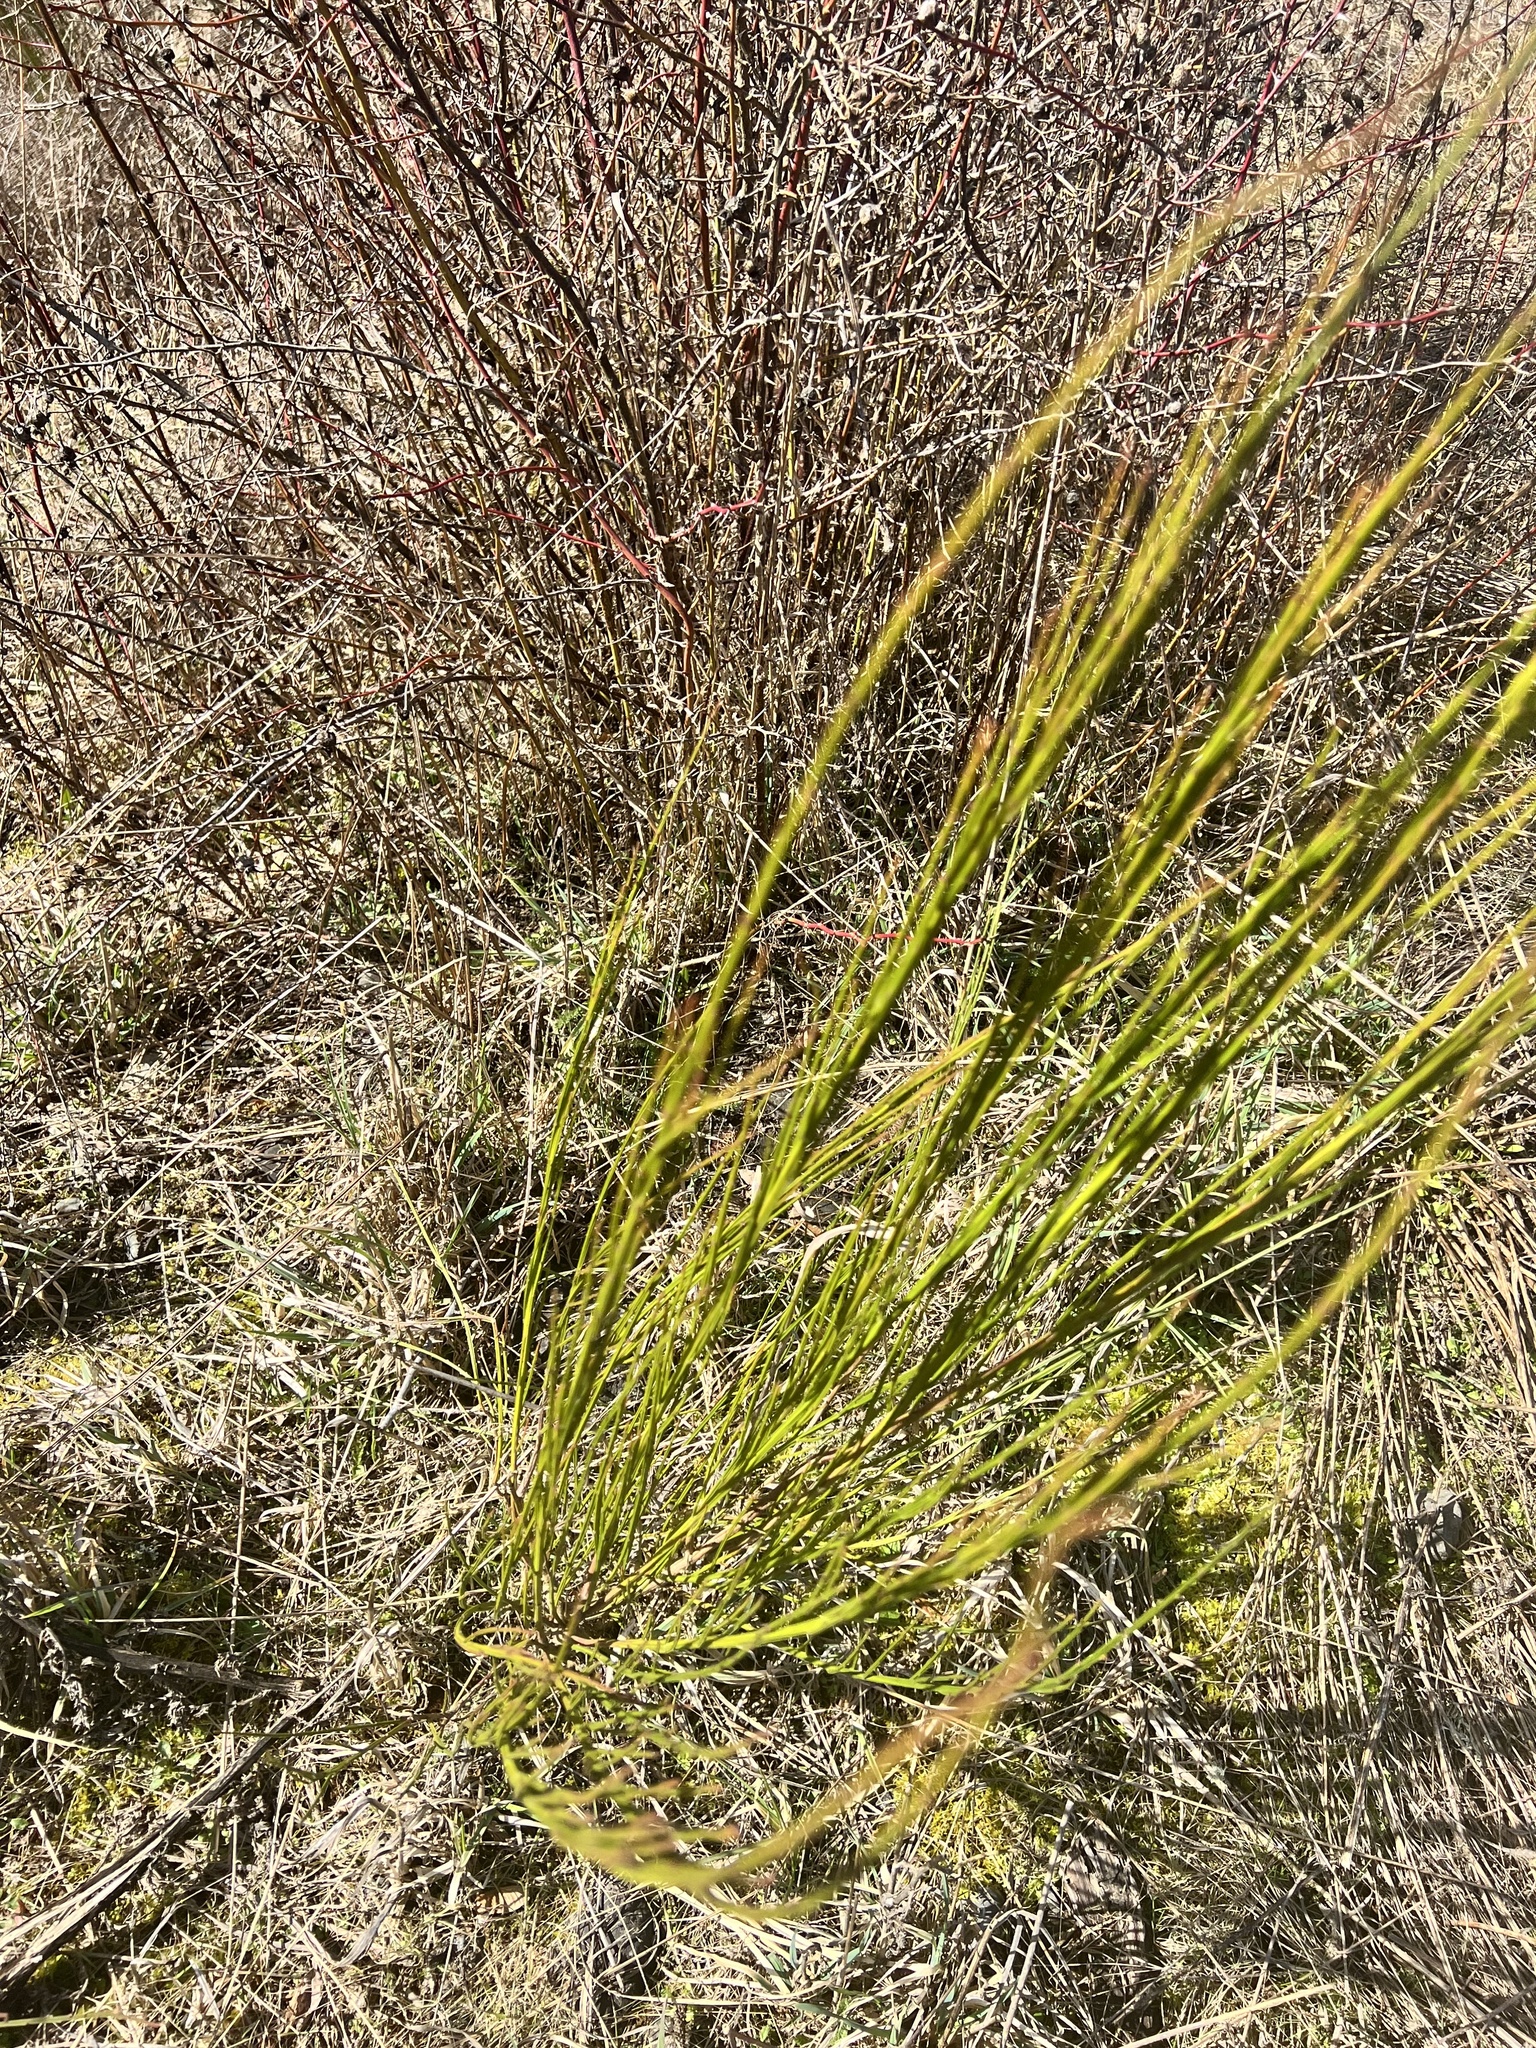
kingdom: Plantae
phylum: Tracheophyta
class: Magnoliopsida
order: Fabales
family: Fabaceae
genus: Cytisus
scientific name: Cytisus scoparius
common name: Scotch broom
